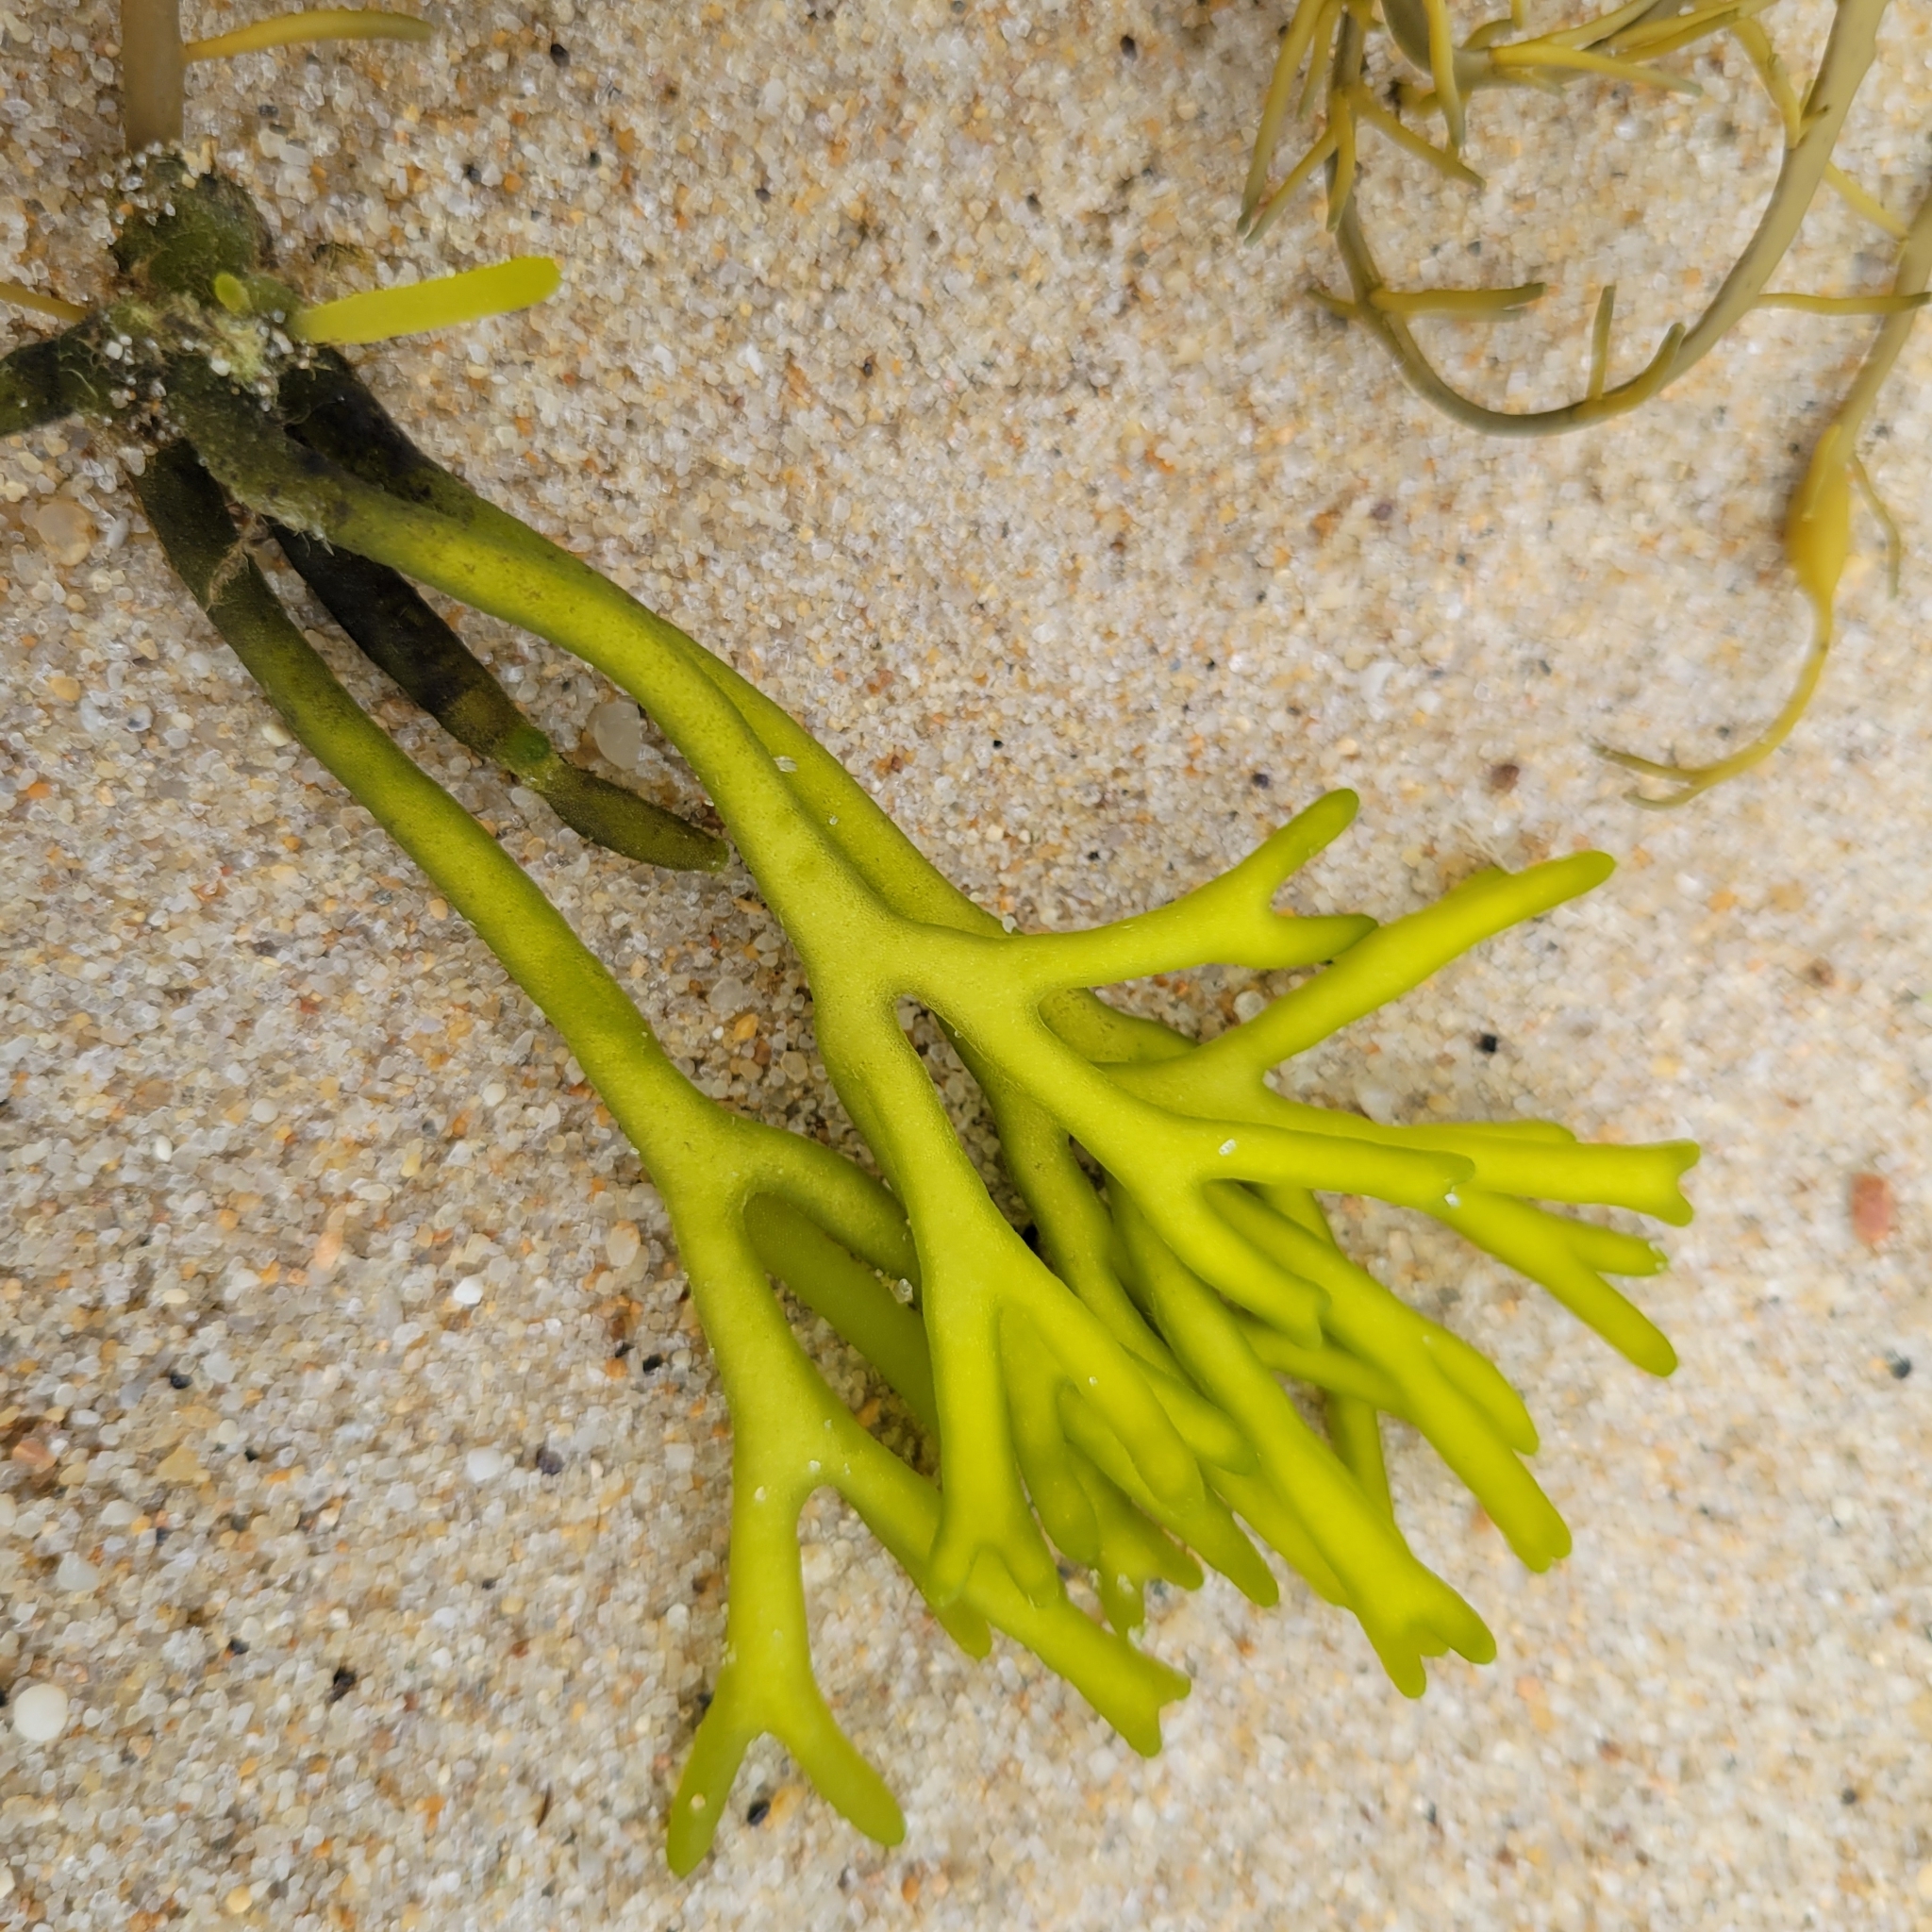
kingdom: Plantae
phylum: Chlorophyta
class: Ulvophyceae
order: Bryopsidales
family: Codiaceae
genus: Codium
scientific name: Codium fragile
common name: Dead man's fingers
